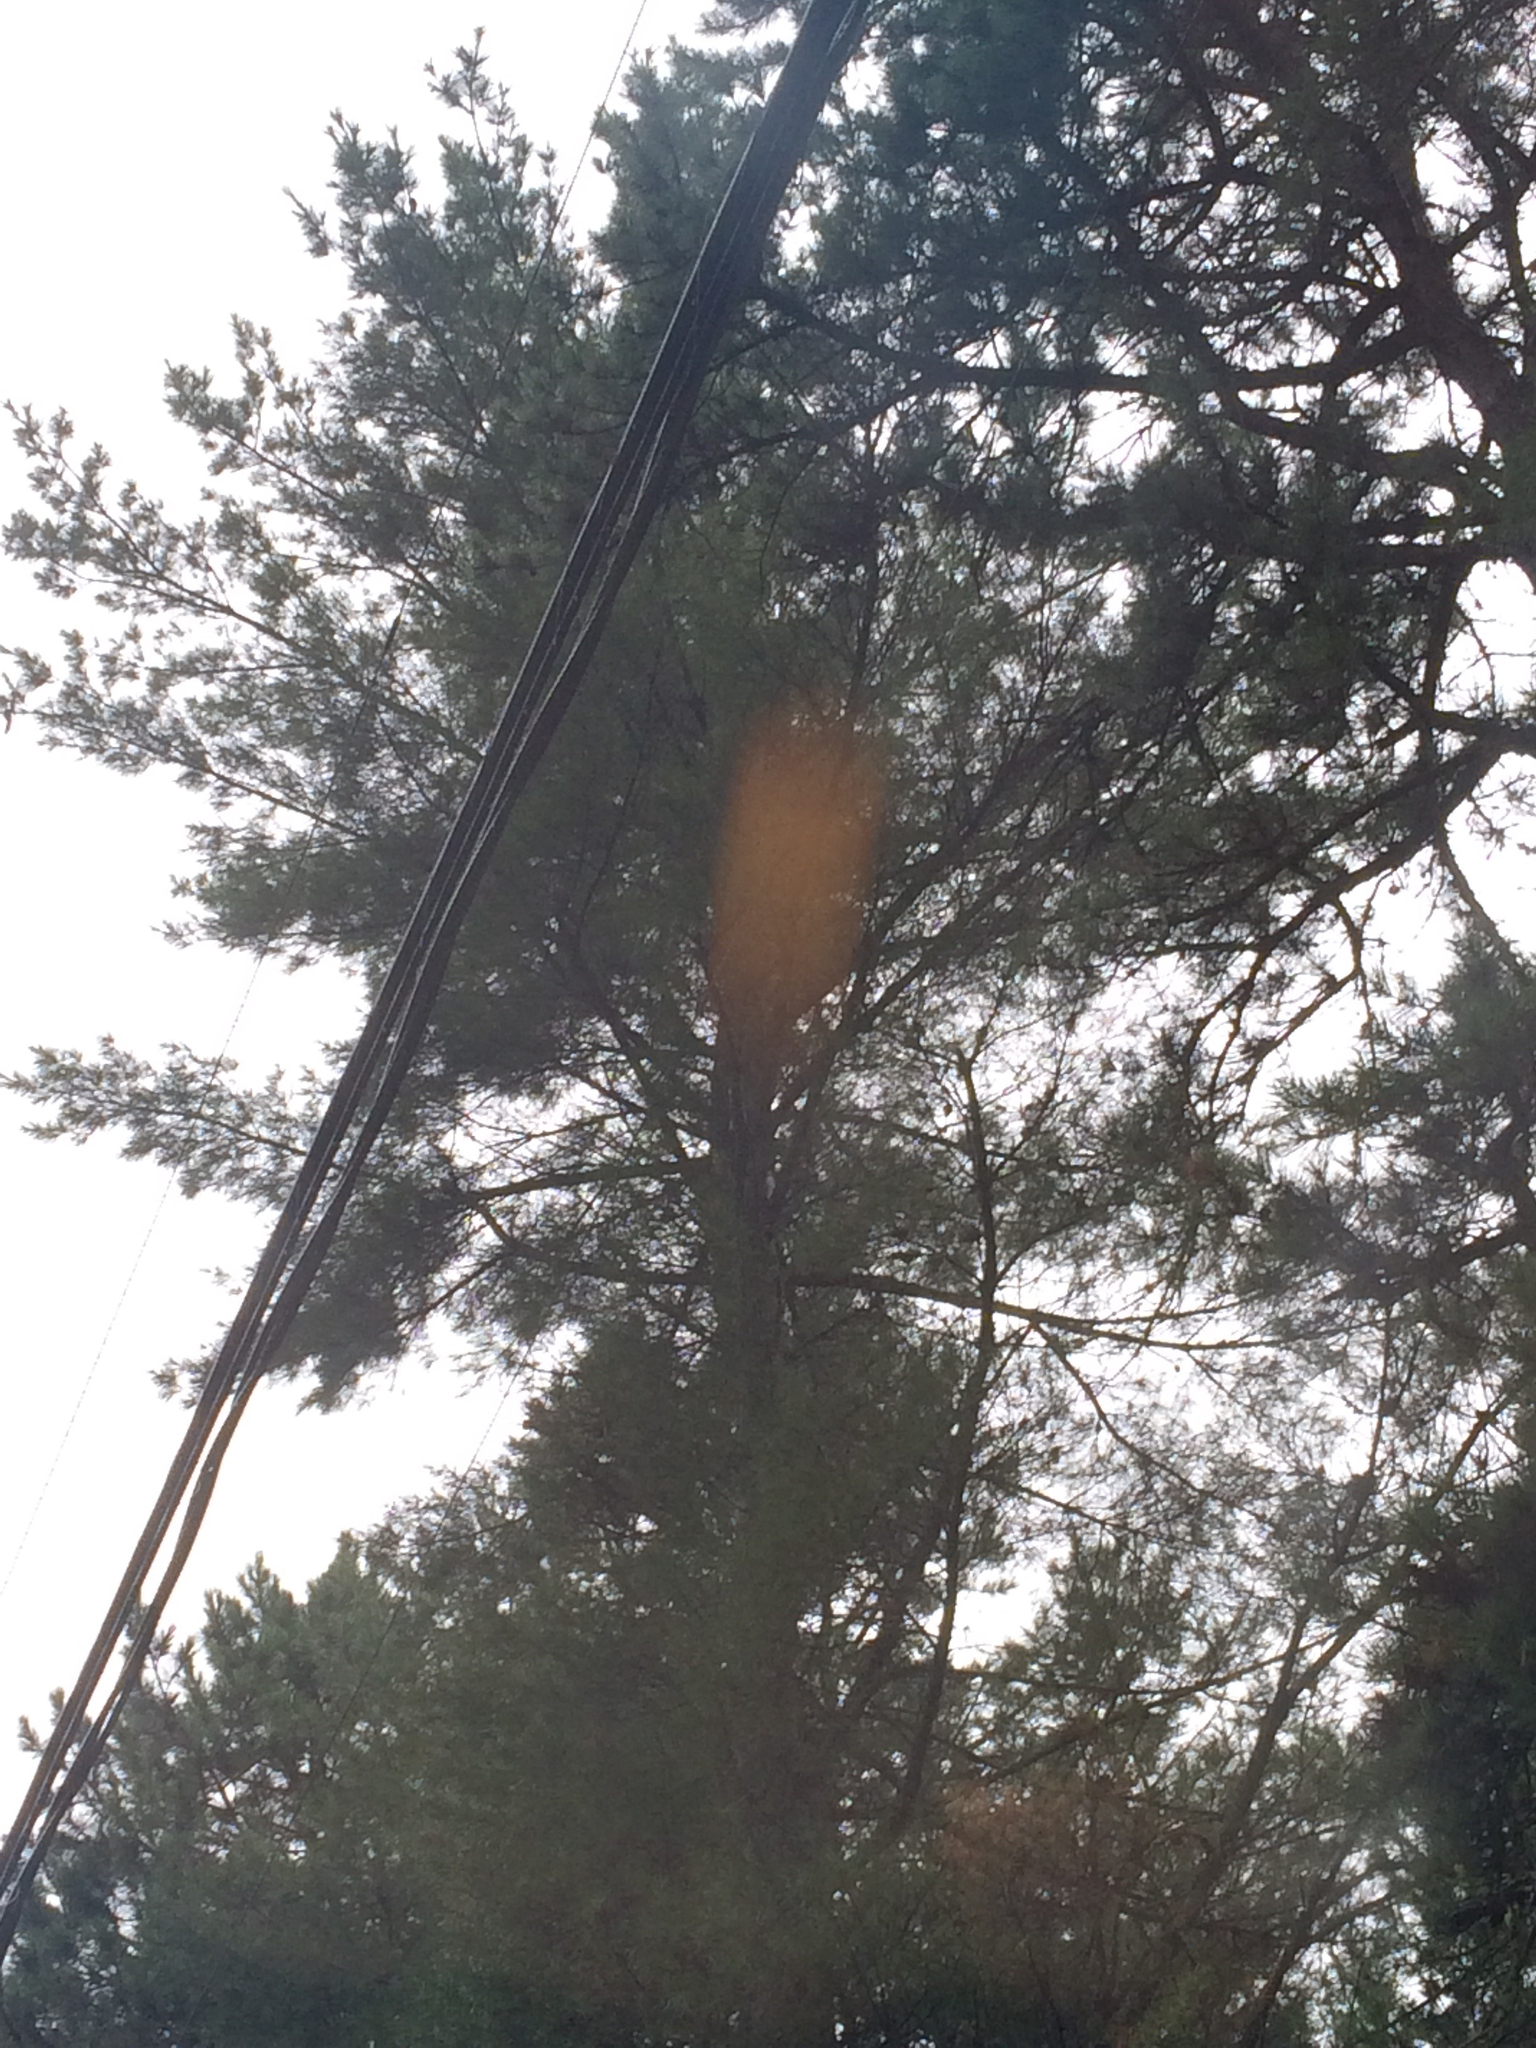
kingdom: Plantae
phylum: Tracheophyta
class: Pinopsida
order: Pinales
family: Pinaceae
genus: Pinus
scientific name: Pinus strobus
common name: Weymouth pine
